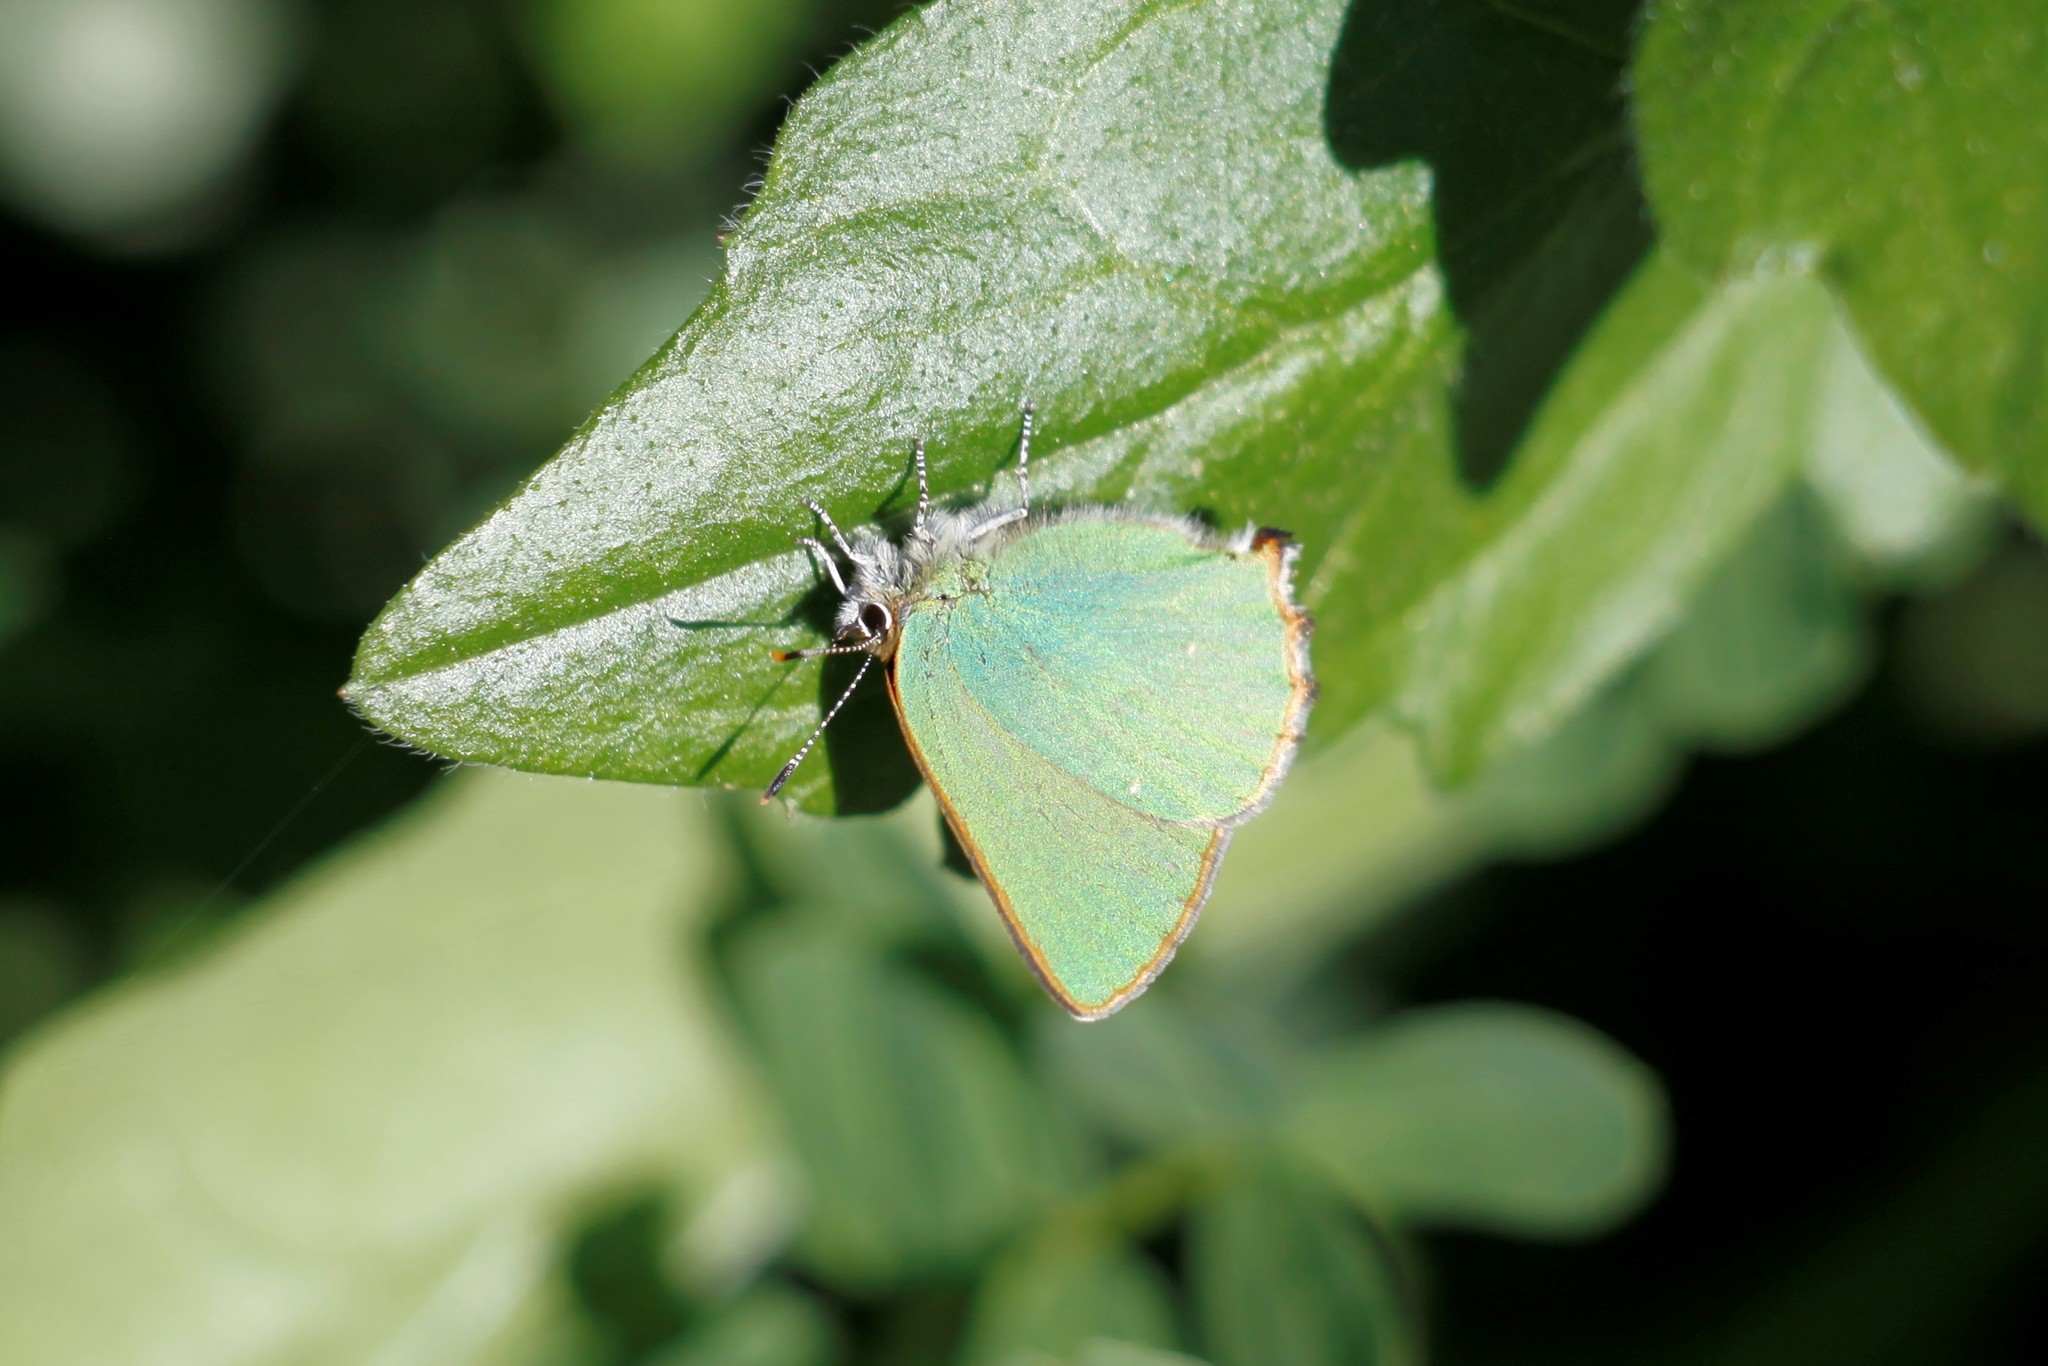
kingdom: Animalia
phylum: Arthropoda
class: Insecta
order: Lepidoptera
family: Lycaenidae
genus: Callophrys
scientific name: Callophrys rubi
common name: Green hairstreak
